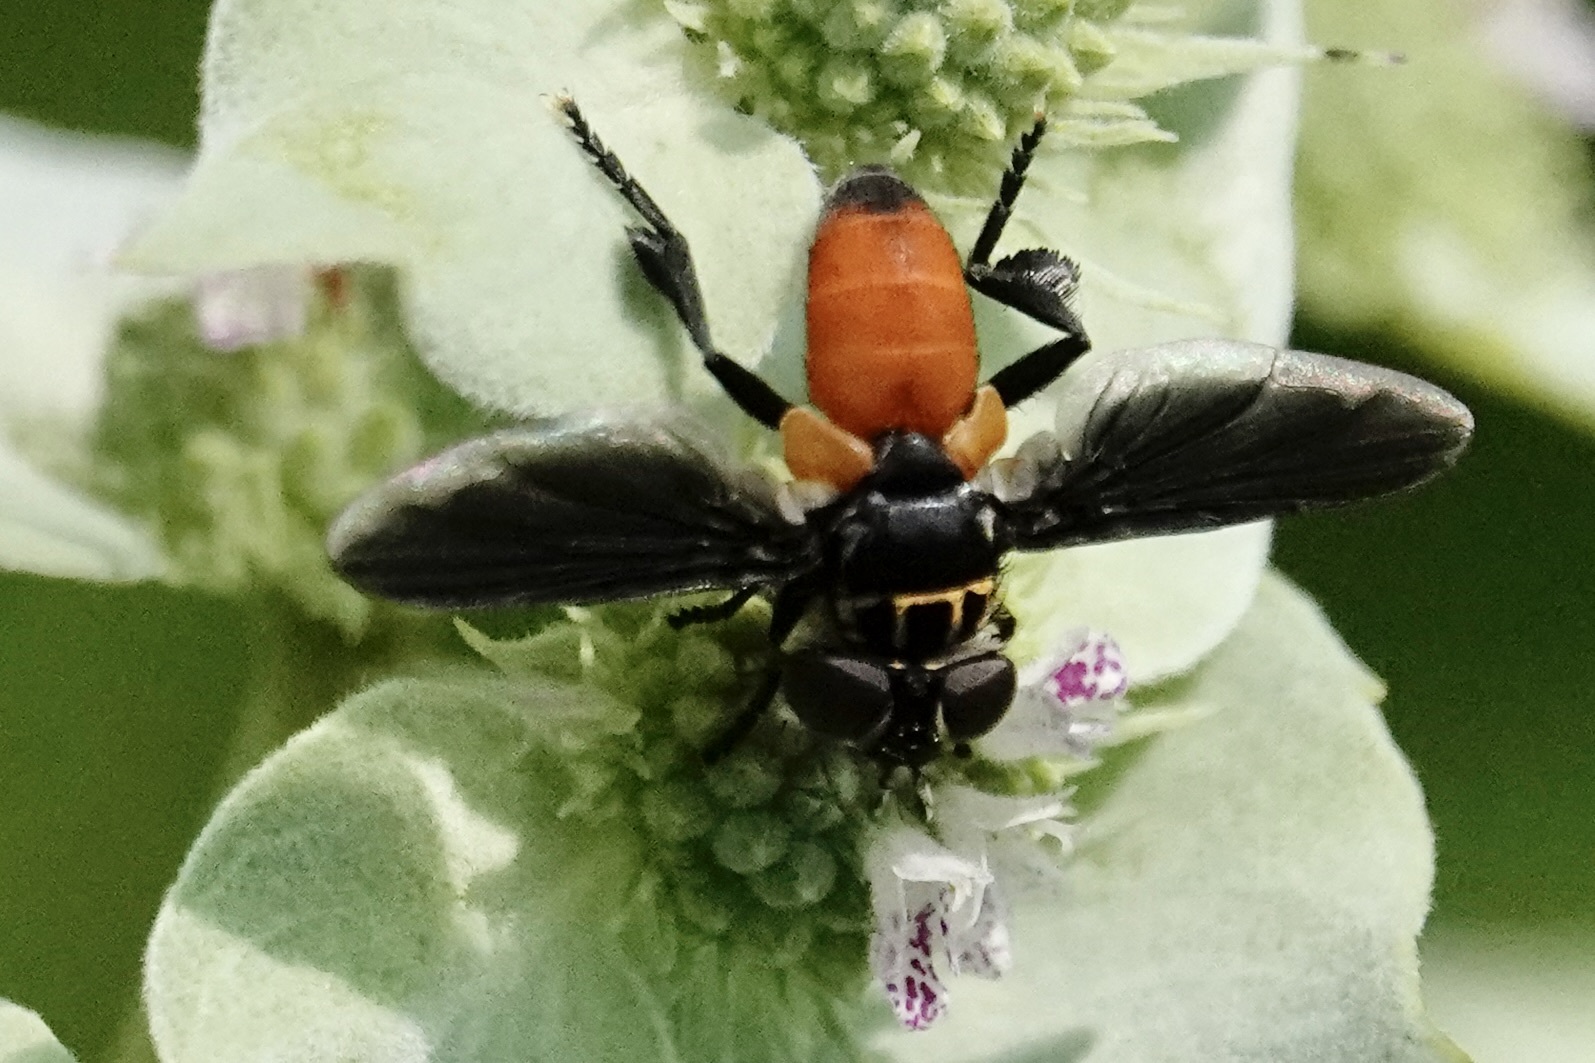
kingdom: Animalia
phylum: Arthropoda
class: Insecta
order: Diptera
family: Tachinidae
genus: Trichopoda
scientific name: Trichopoda pennipes
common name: Tachinid fly
